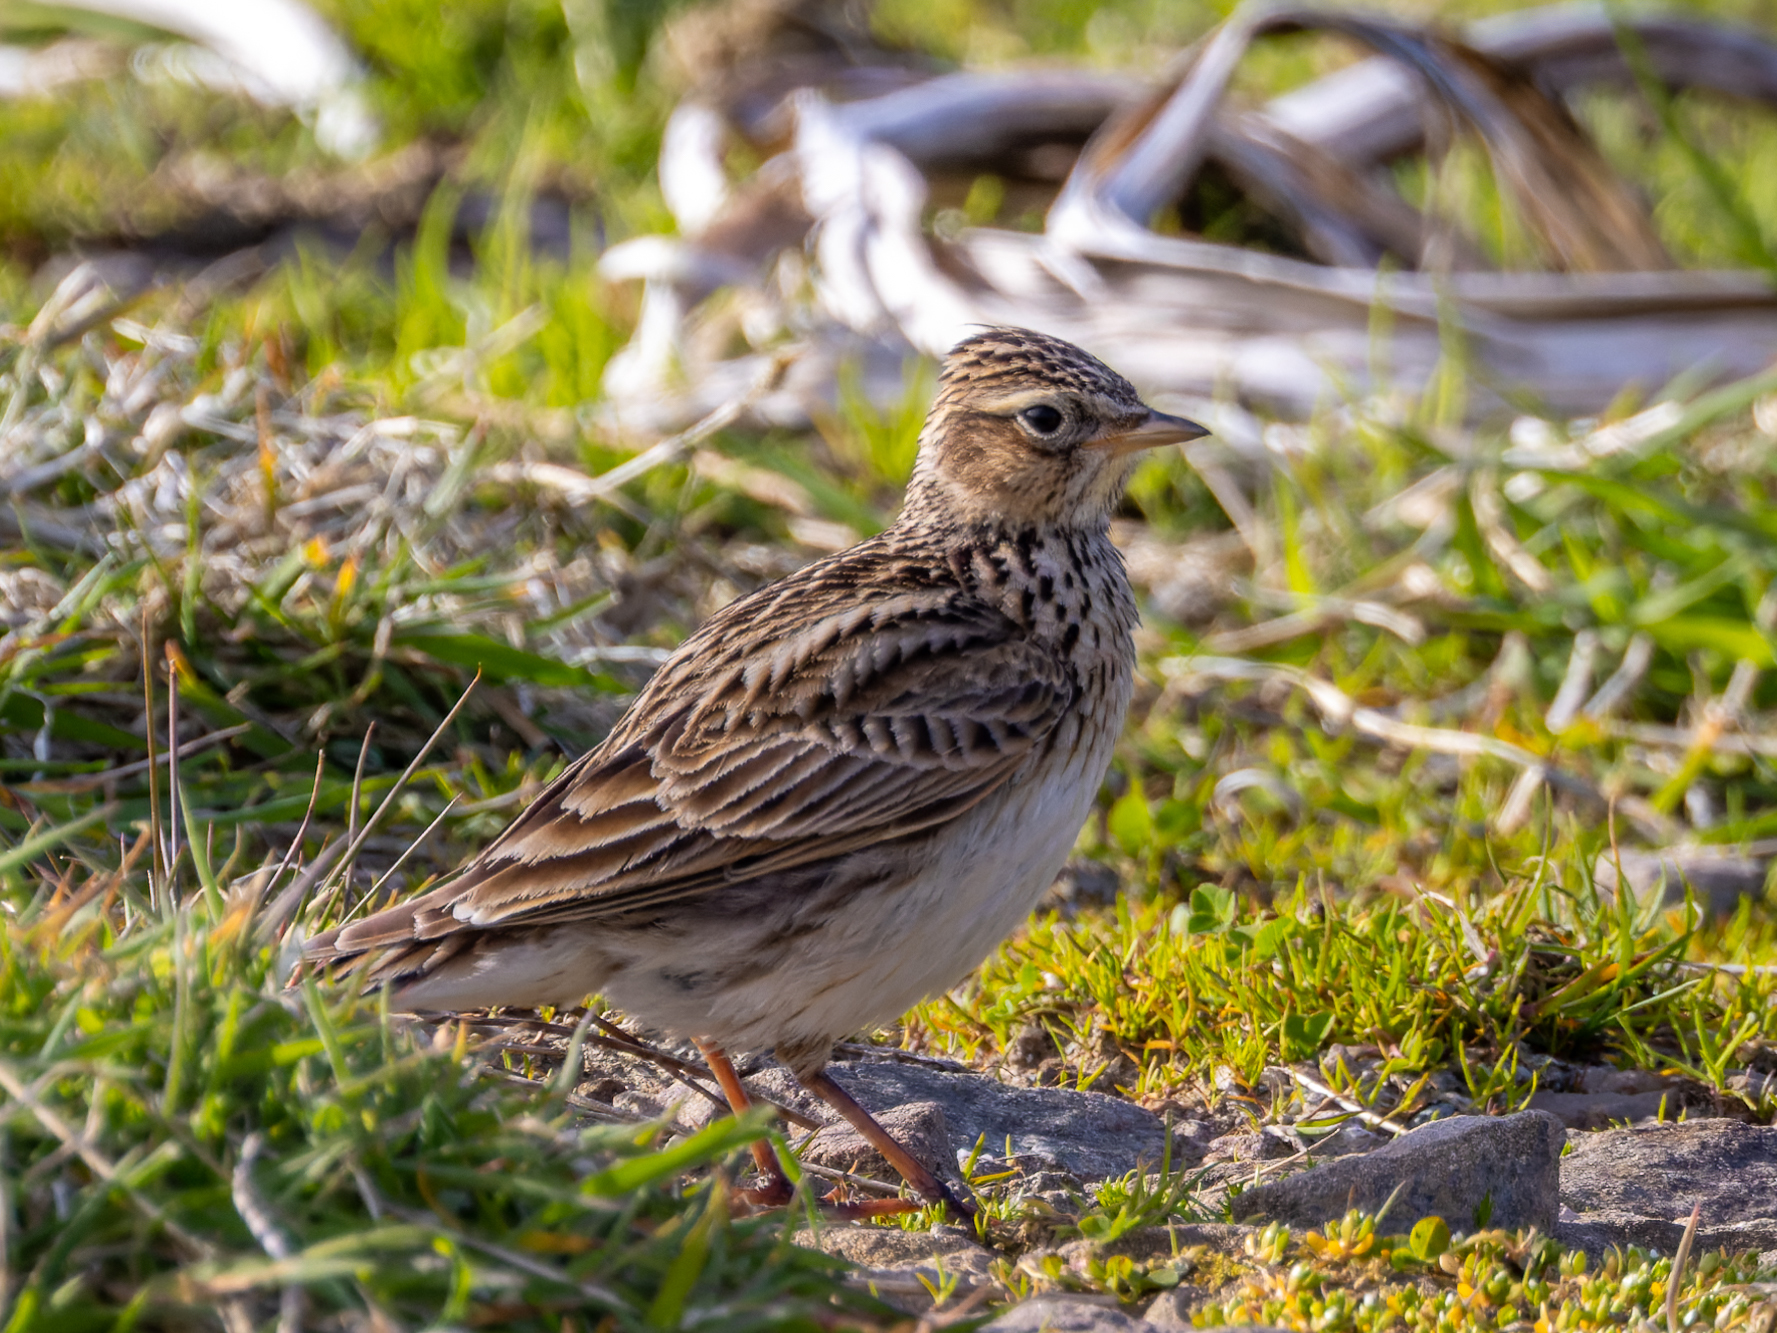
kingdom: Animalia
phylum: Chordata
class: Aves
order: Passeriformes
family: Alaudidae
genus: Alauda
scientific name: Alauda arvensis
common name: Eurasian skylark
